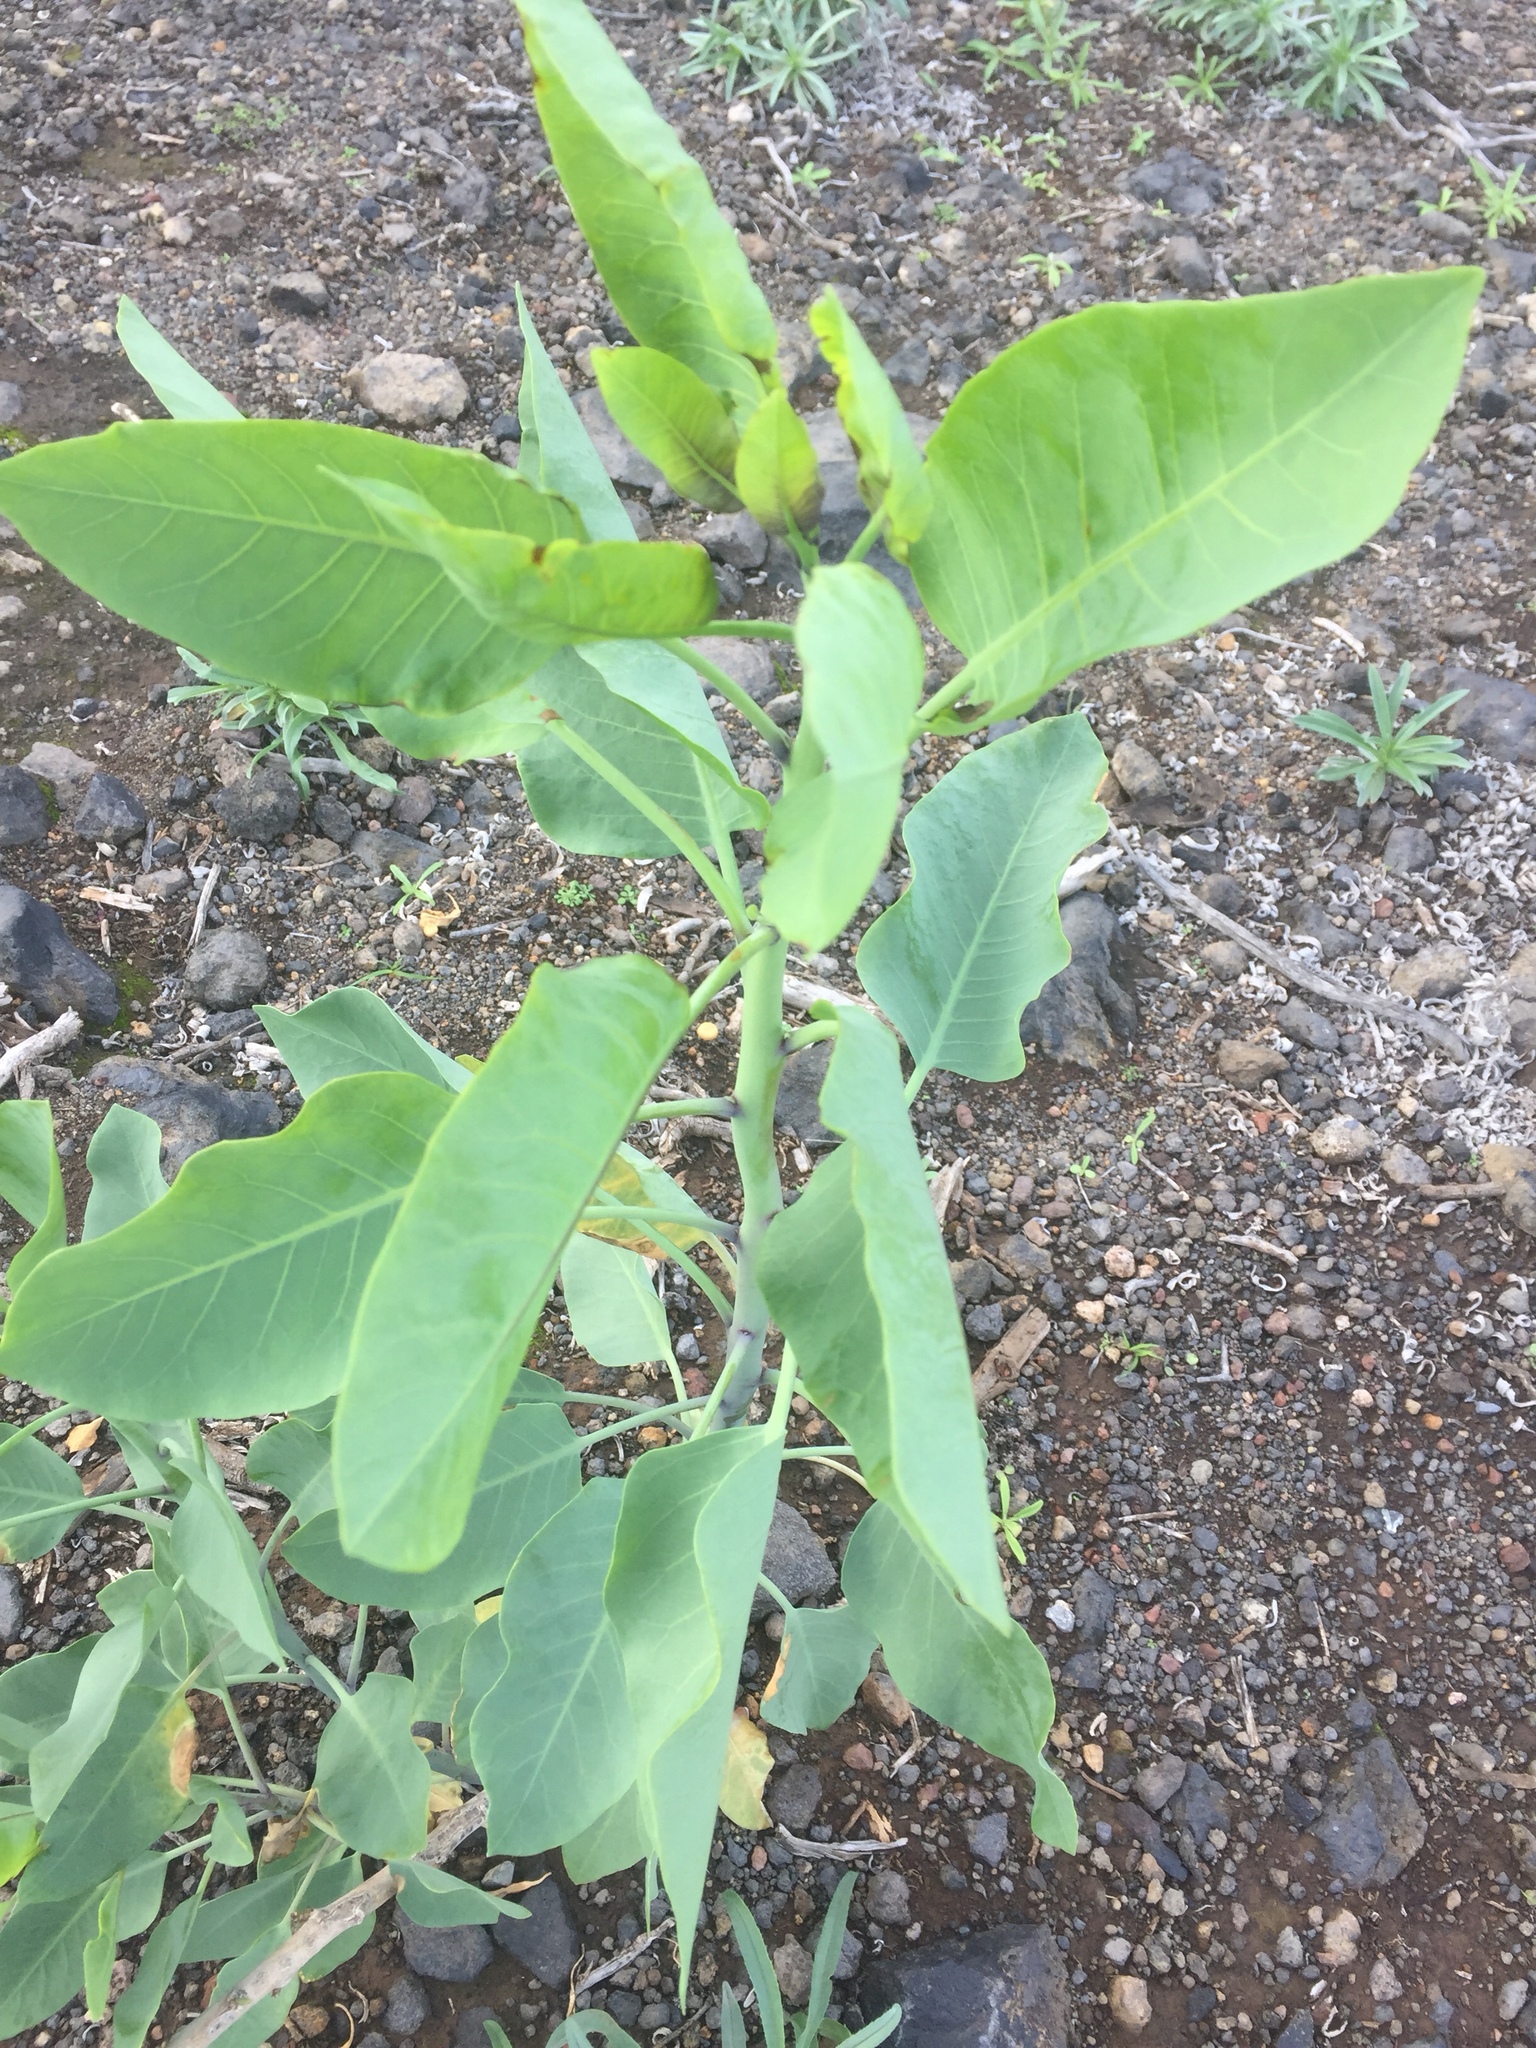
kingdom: Plantae
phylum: Tracheophyta
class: Magnoliopsida
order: Solanales
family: Solanaceae
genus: Nicotiana
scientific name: Nicotiana glauca
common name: Tree tobacco
